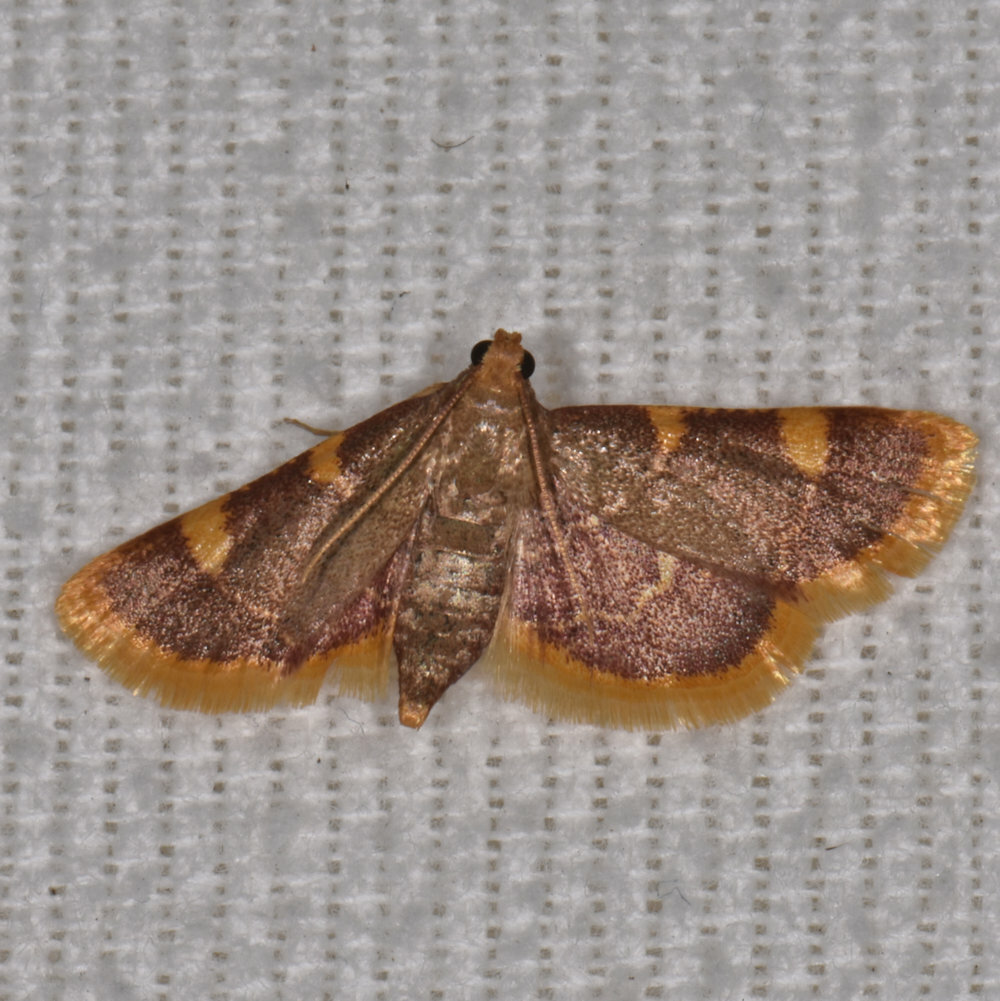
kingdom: Animalia
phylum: Arthropoda
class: Insecta
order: Lepidoptera
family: Pyralidae
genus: Hypsopygia
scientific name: Hypsopygia costalis
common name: Gold triangle
